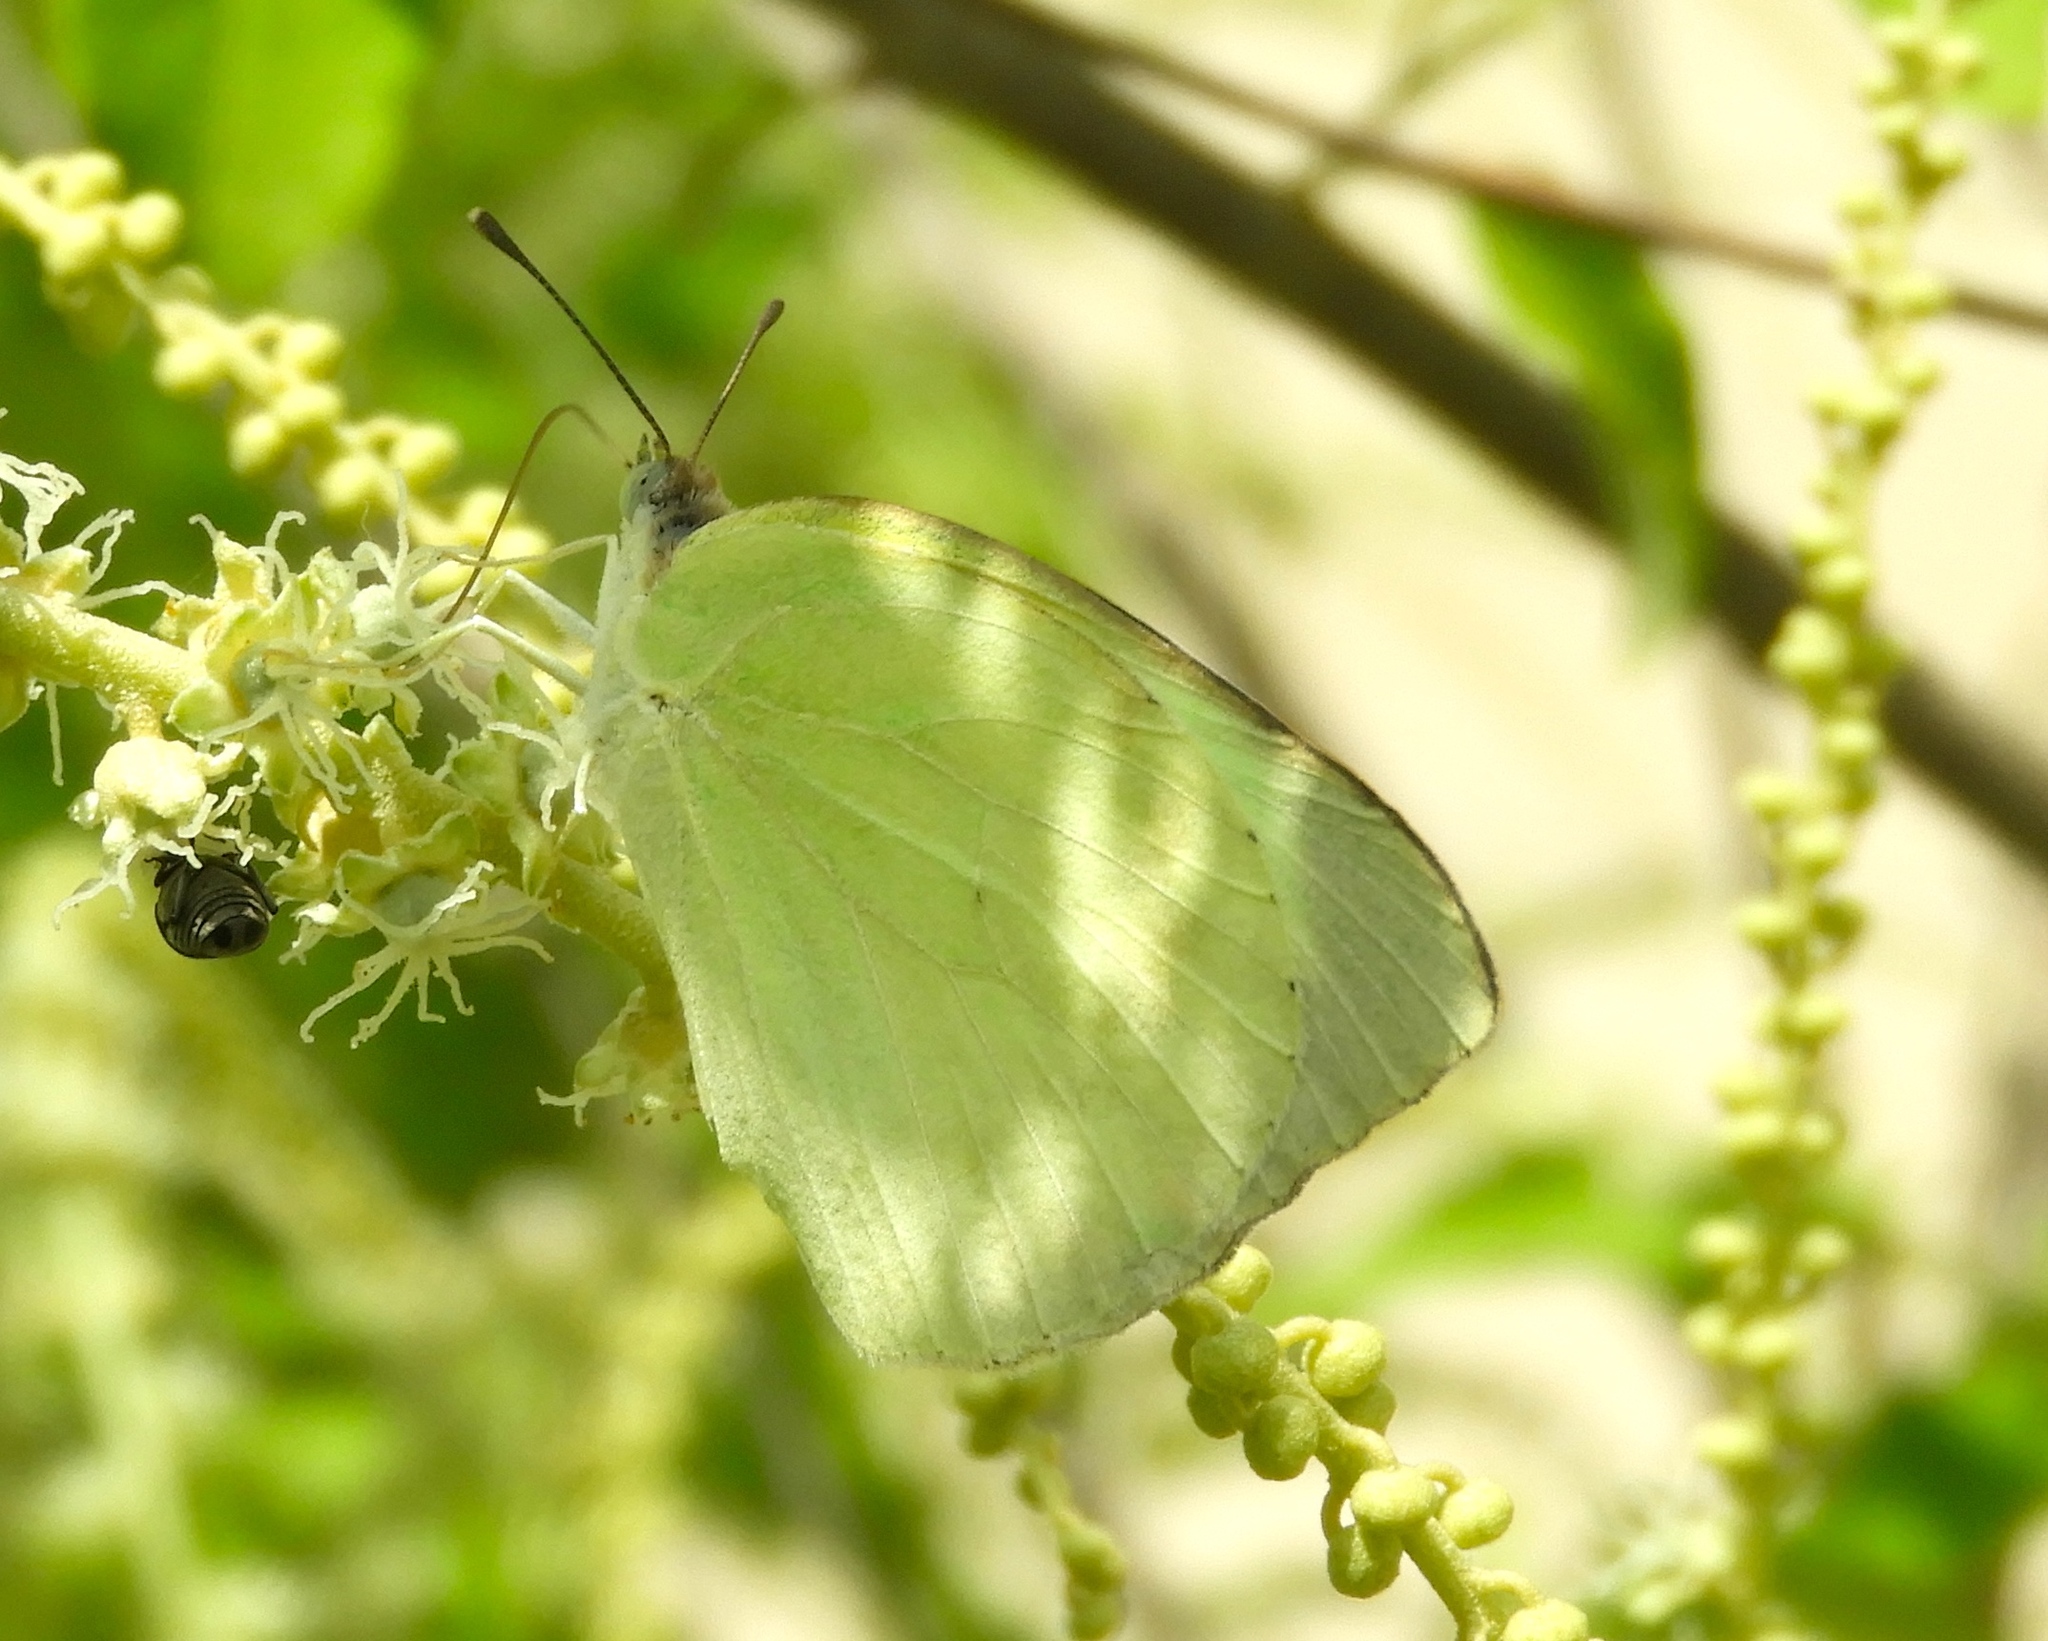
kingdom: Animalia
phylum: Arthropoda
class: Insecta
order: Lepidoptera
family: Pieridae
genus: Kricogonia
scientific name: Kricogonia lyside
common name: Guayacan sulphur,
